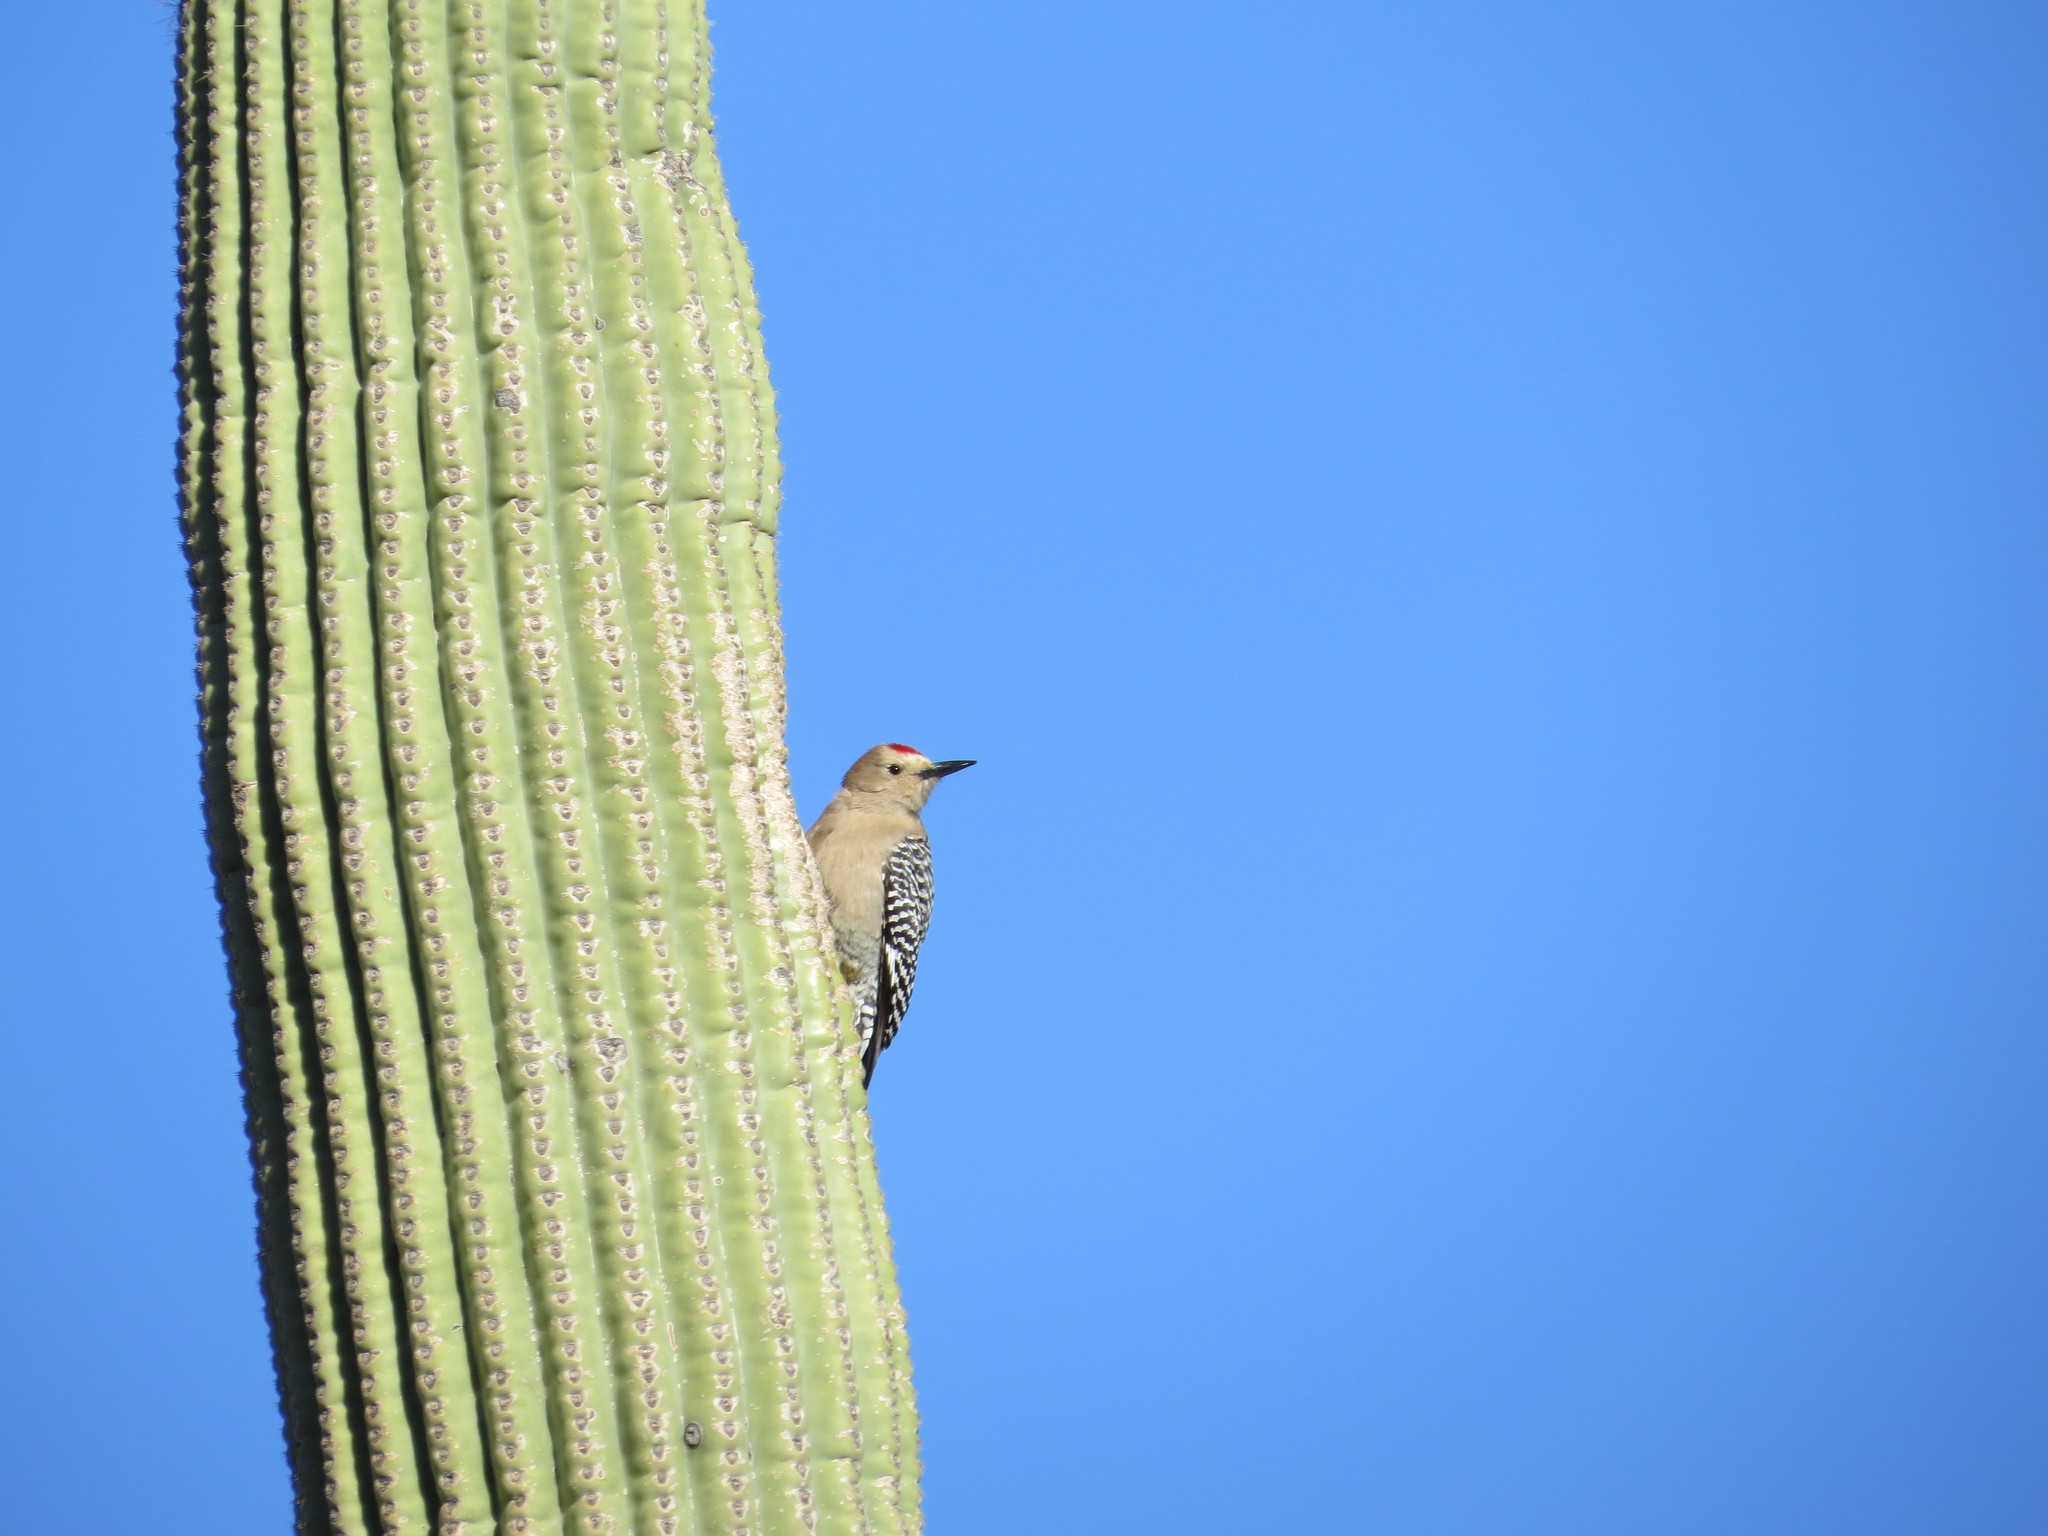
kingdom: Animalia
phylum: Chordata
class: Aves
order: Piciformes
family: Picidae
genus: Melanerpes
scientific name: Melanerpes uropygialis
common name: Gila woodpecker
